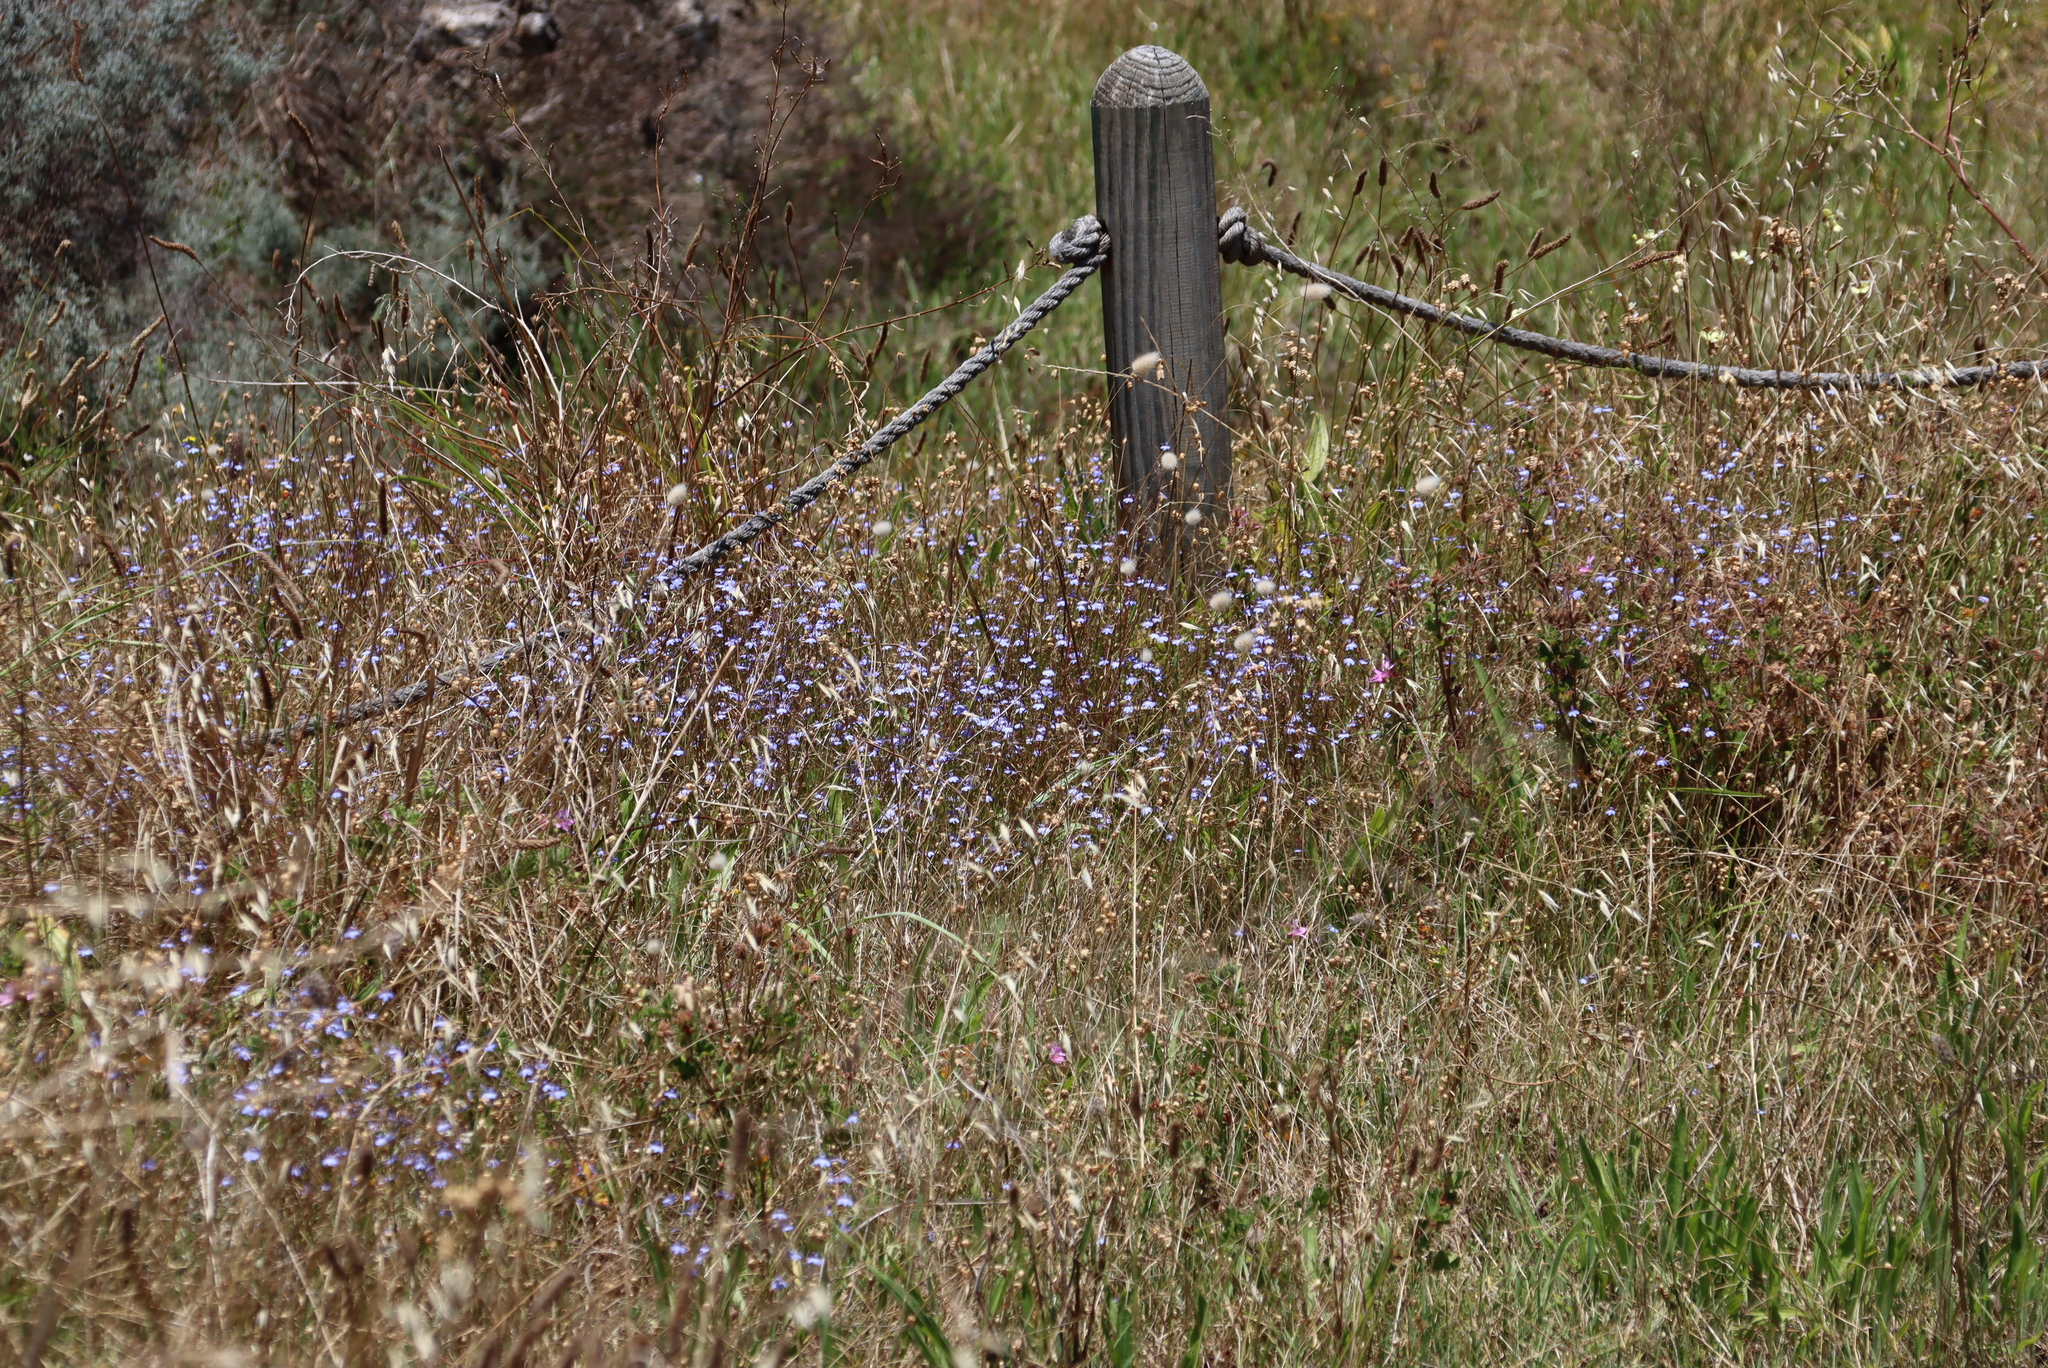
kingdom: Plantae
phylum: Tracheophyta
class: Magnoliopsida
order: Asterales
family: Campanulaceae
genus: Lobelia
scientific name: Lobelia erinus
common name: Edging lobelia
